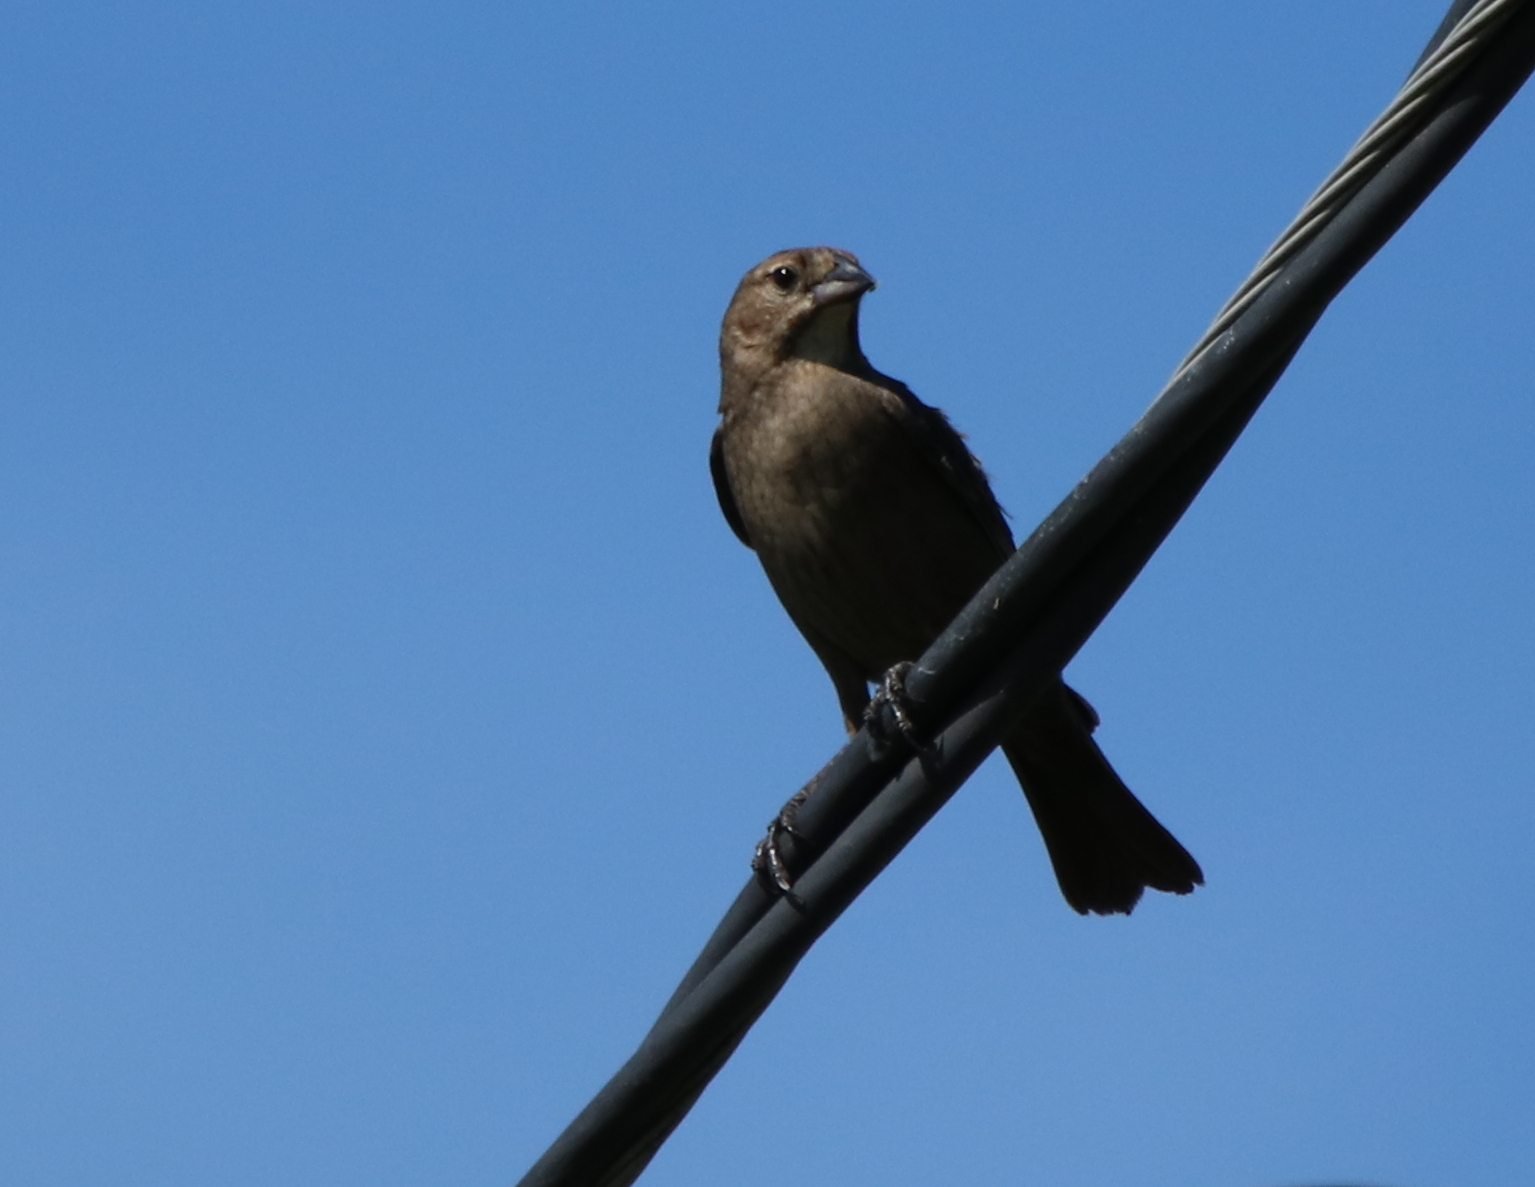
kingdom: Animalia
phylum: Chordata
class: Aves
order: Passeriformes
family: Icteridae
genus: Molothrus
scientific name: Molothrus ater
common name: Brown-headed cowbird
